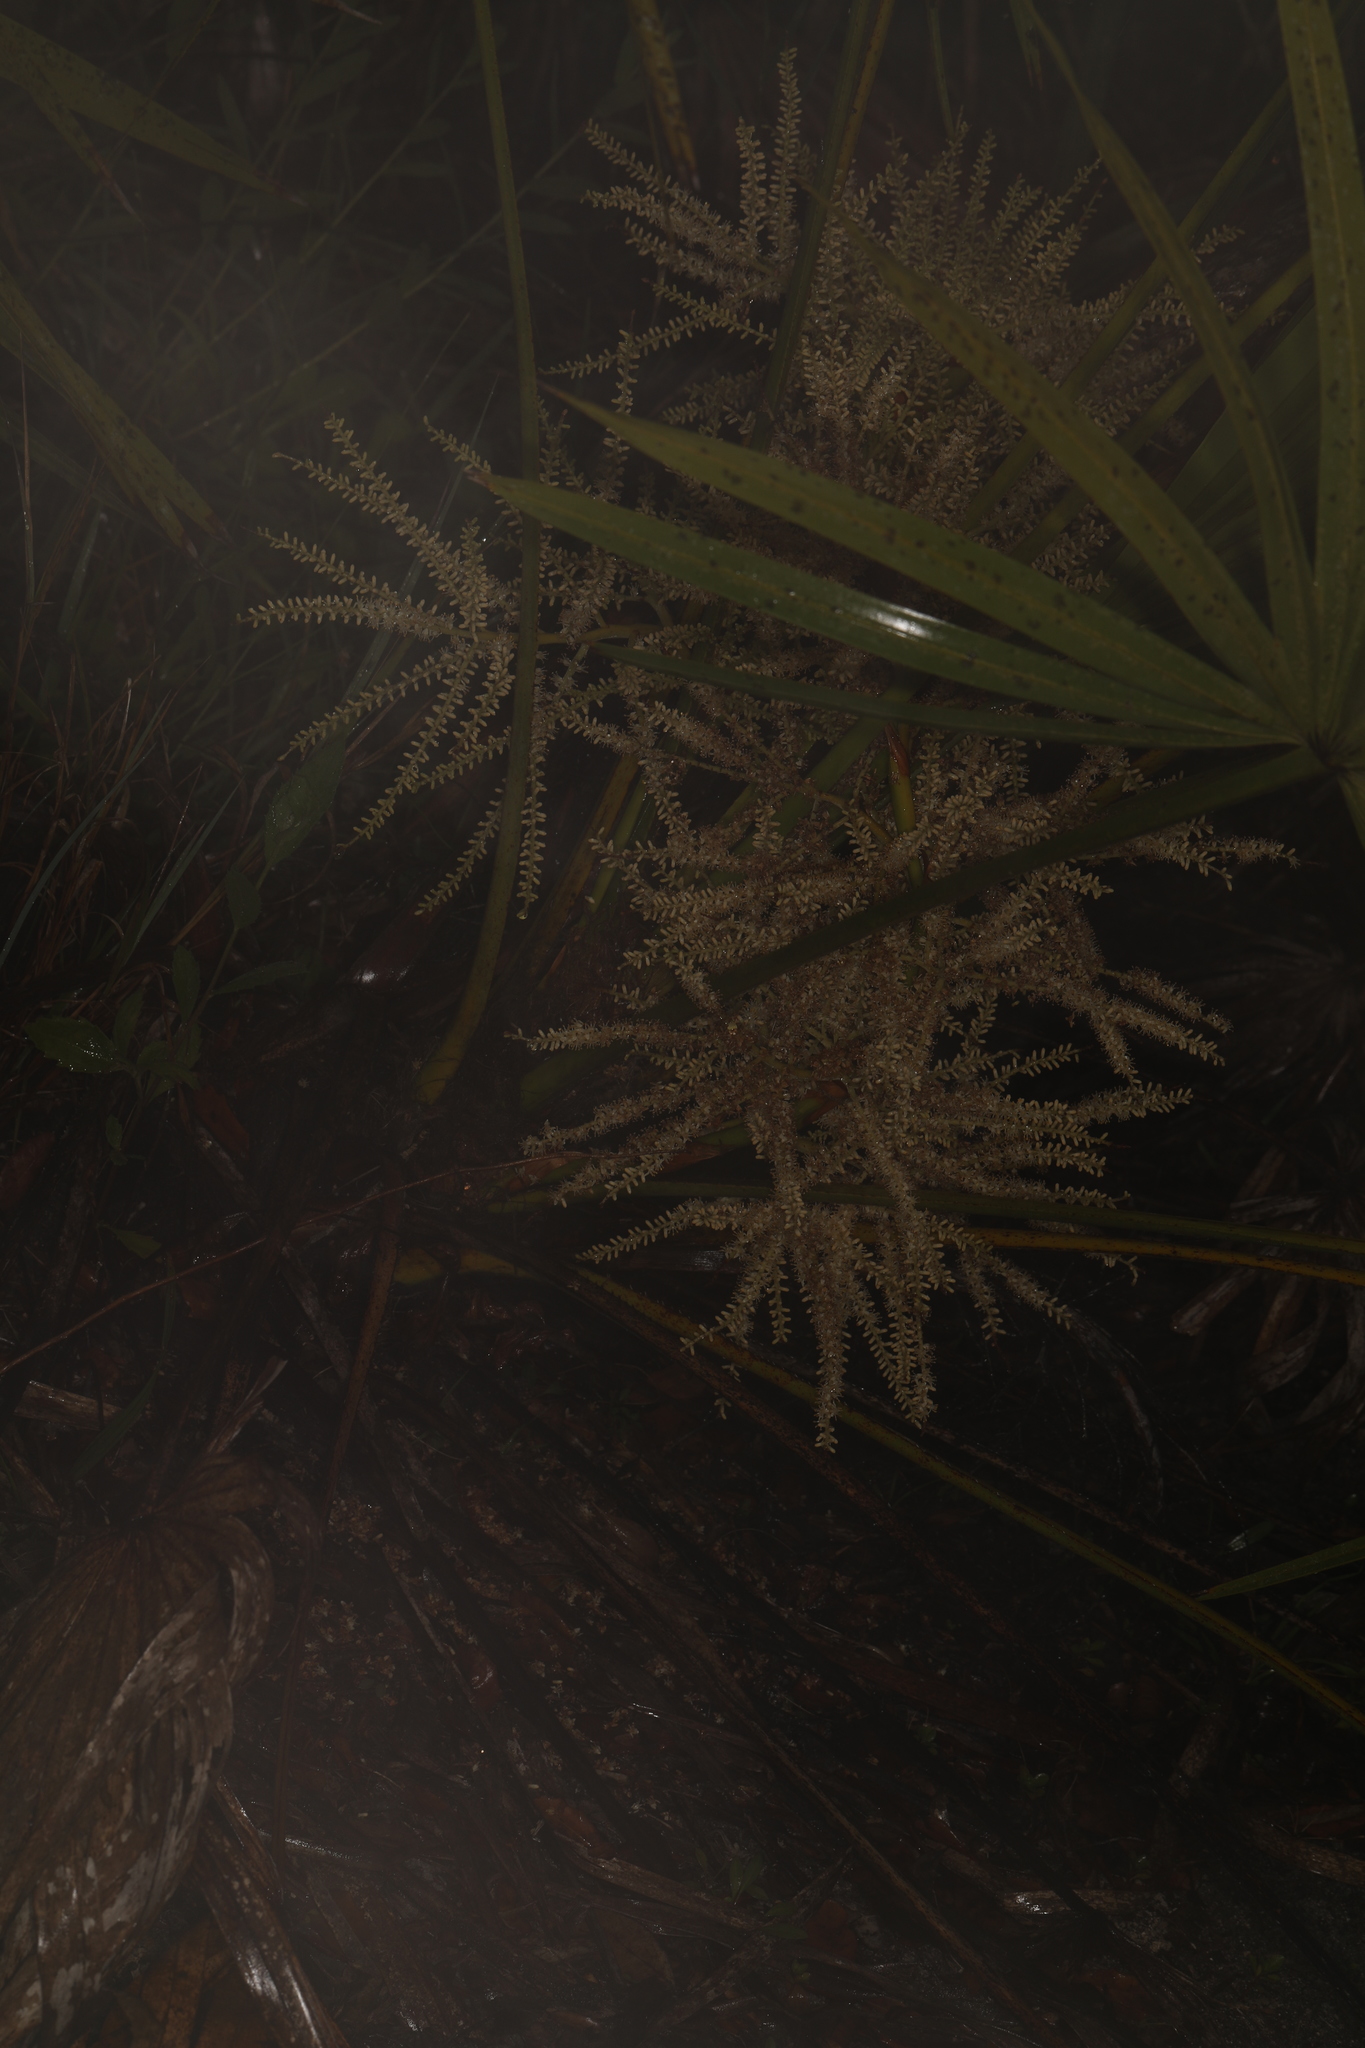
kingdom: Plantae
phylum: Tracheophyta
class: Liliopsida
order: Arecales
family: Arecaceae
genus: Serenoa
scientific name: Serenoa repens
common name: Saw-palmetto
